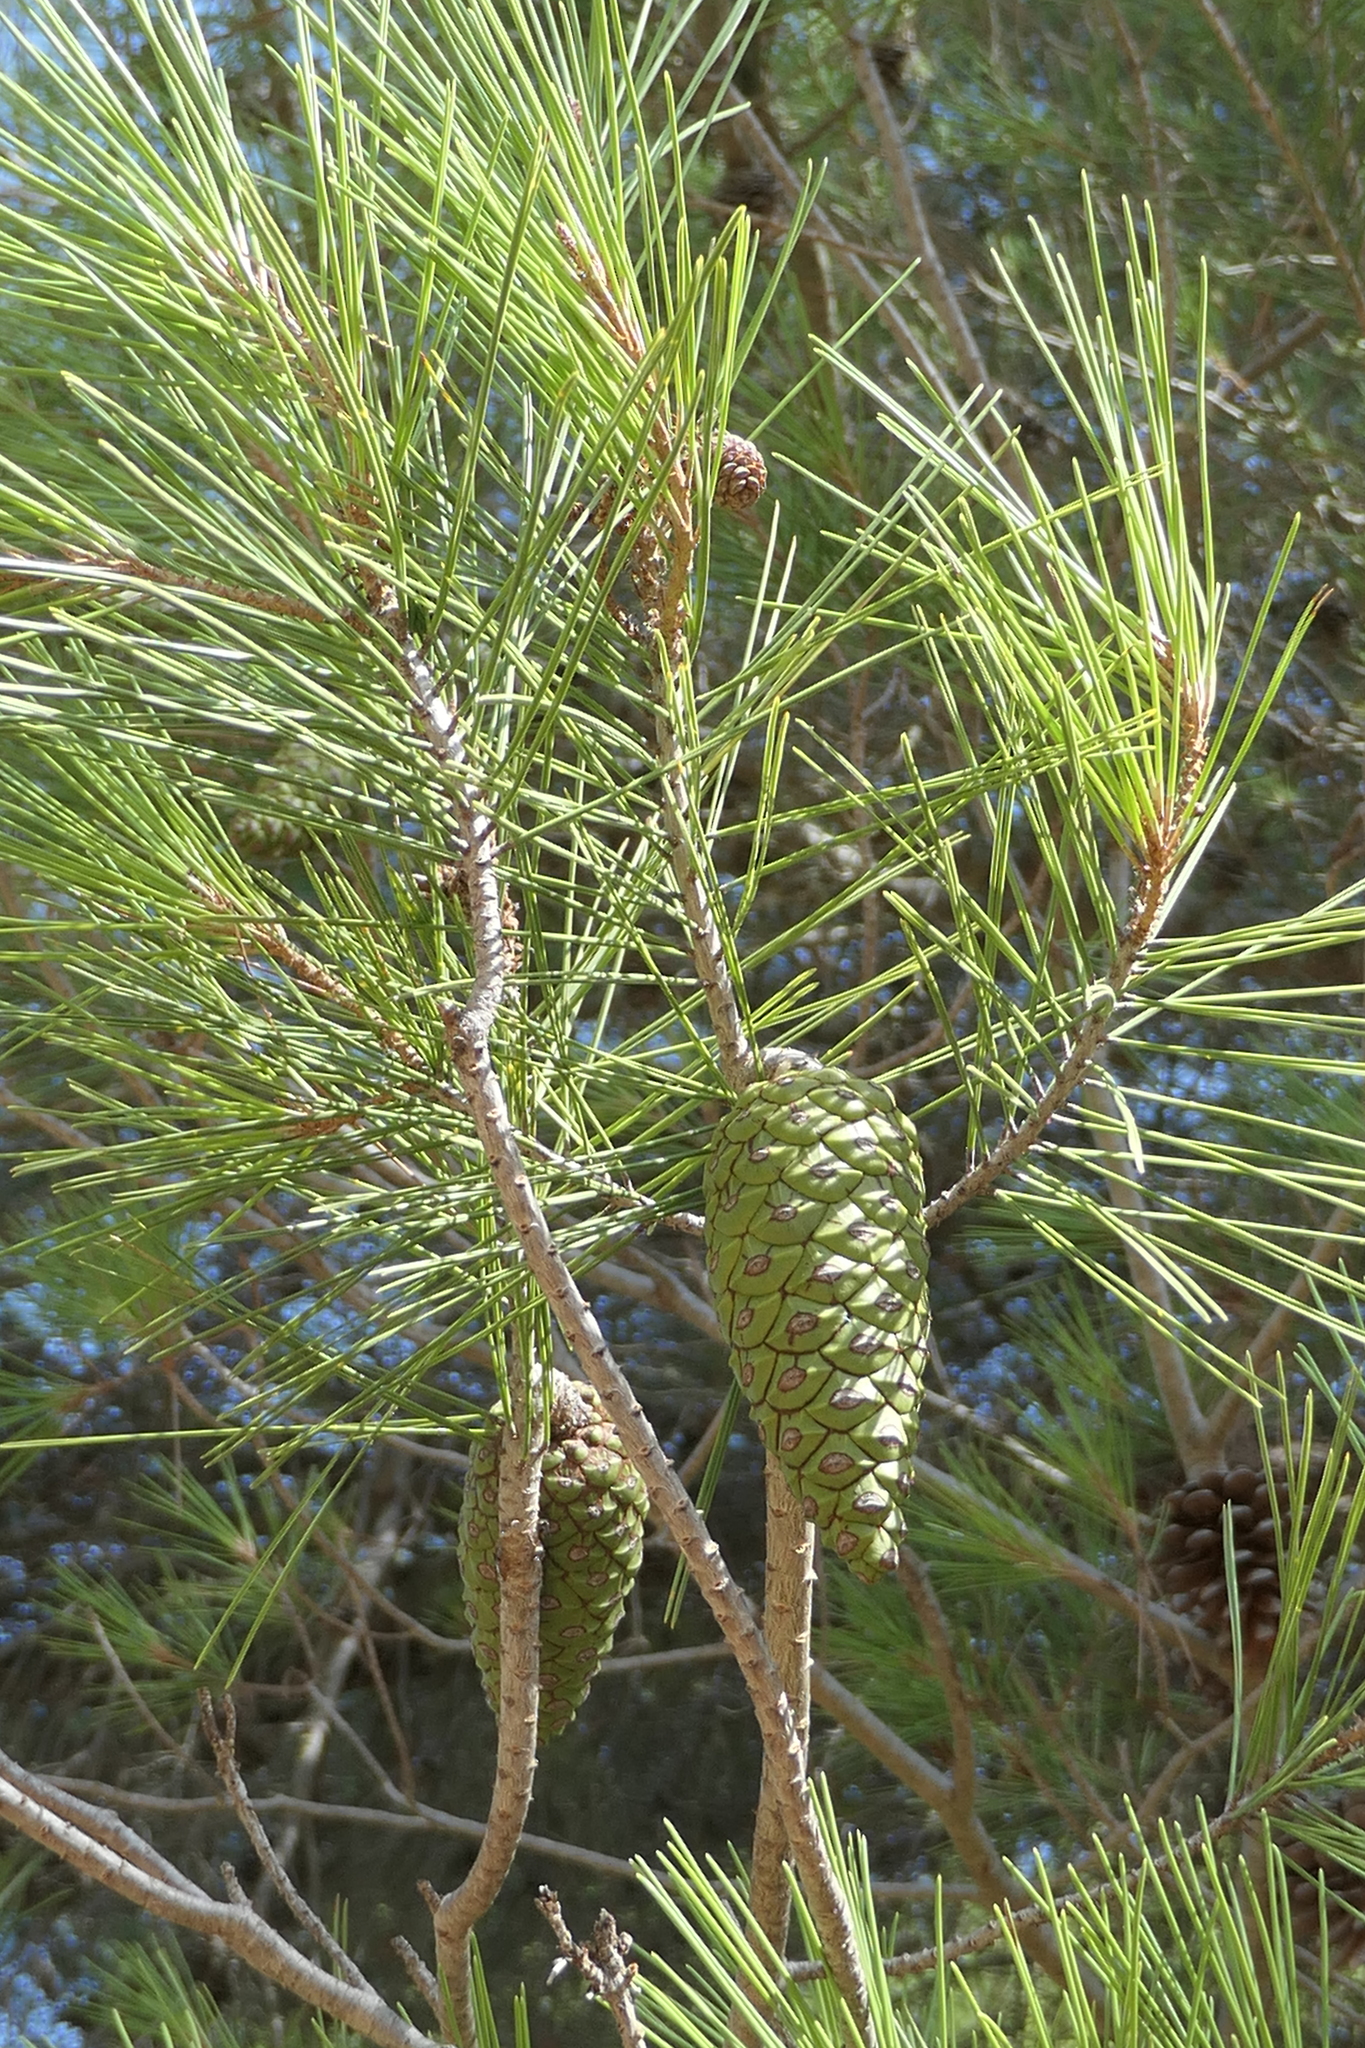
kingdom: Plantae
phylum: Tracheophyta
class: Pinopsida
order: Pinales
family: Pinaceae
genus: Pinus
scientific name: Pinus halepensis
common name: Aleppo pine
